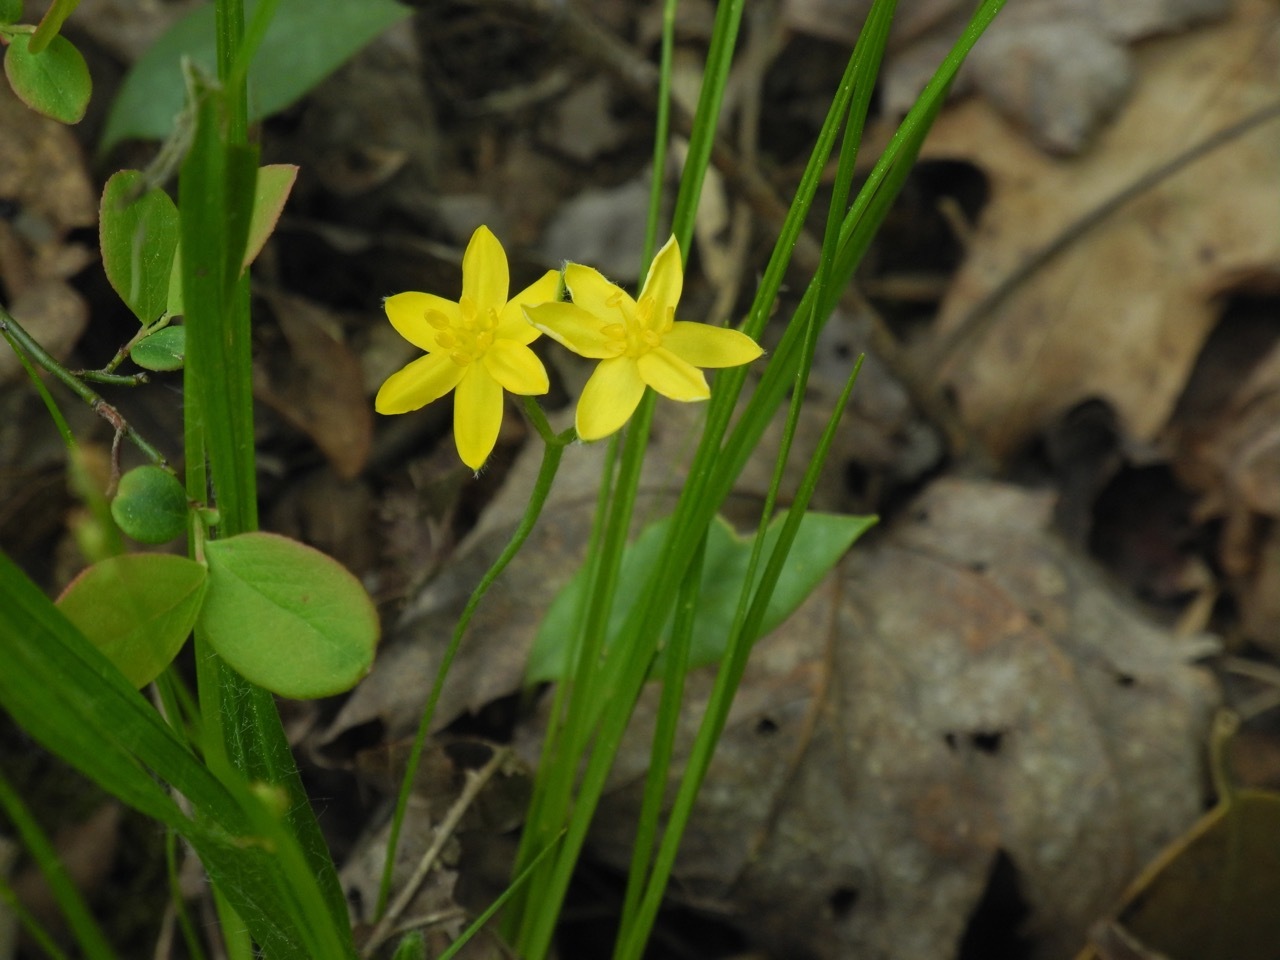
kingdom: Plantae
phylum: Tracheophyta
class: Liliopsida
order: Asparagales
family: Hypoxidaceae
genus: Hypoxis
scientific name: Hypoxis hirsuta
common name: Common goldstar
